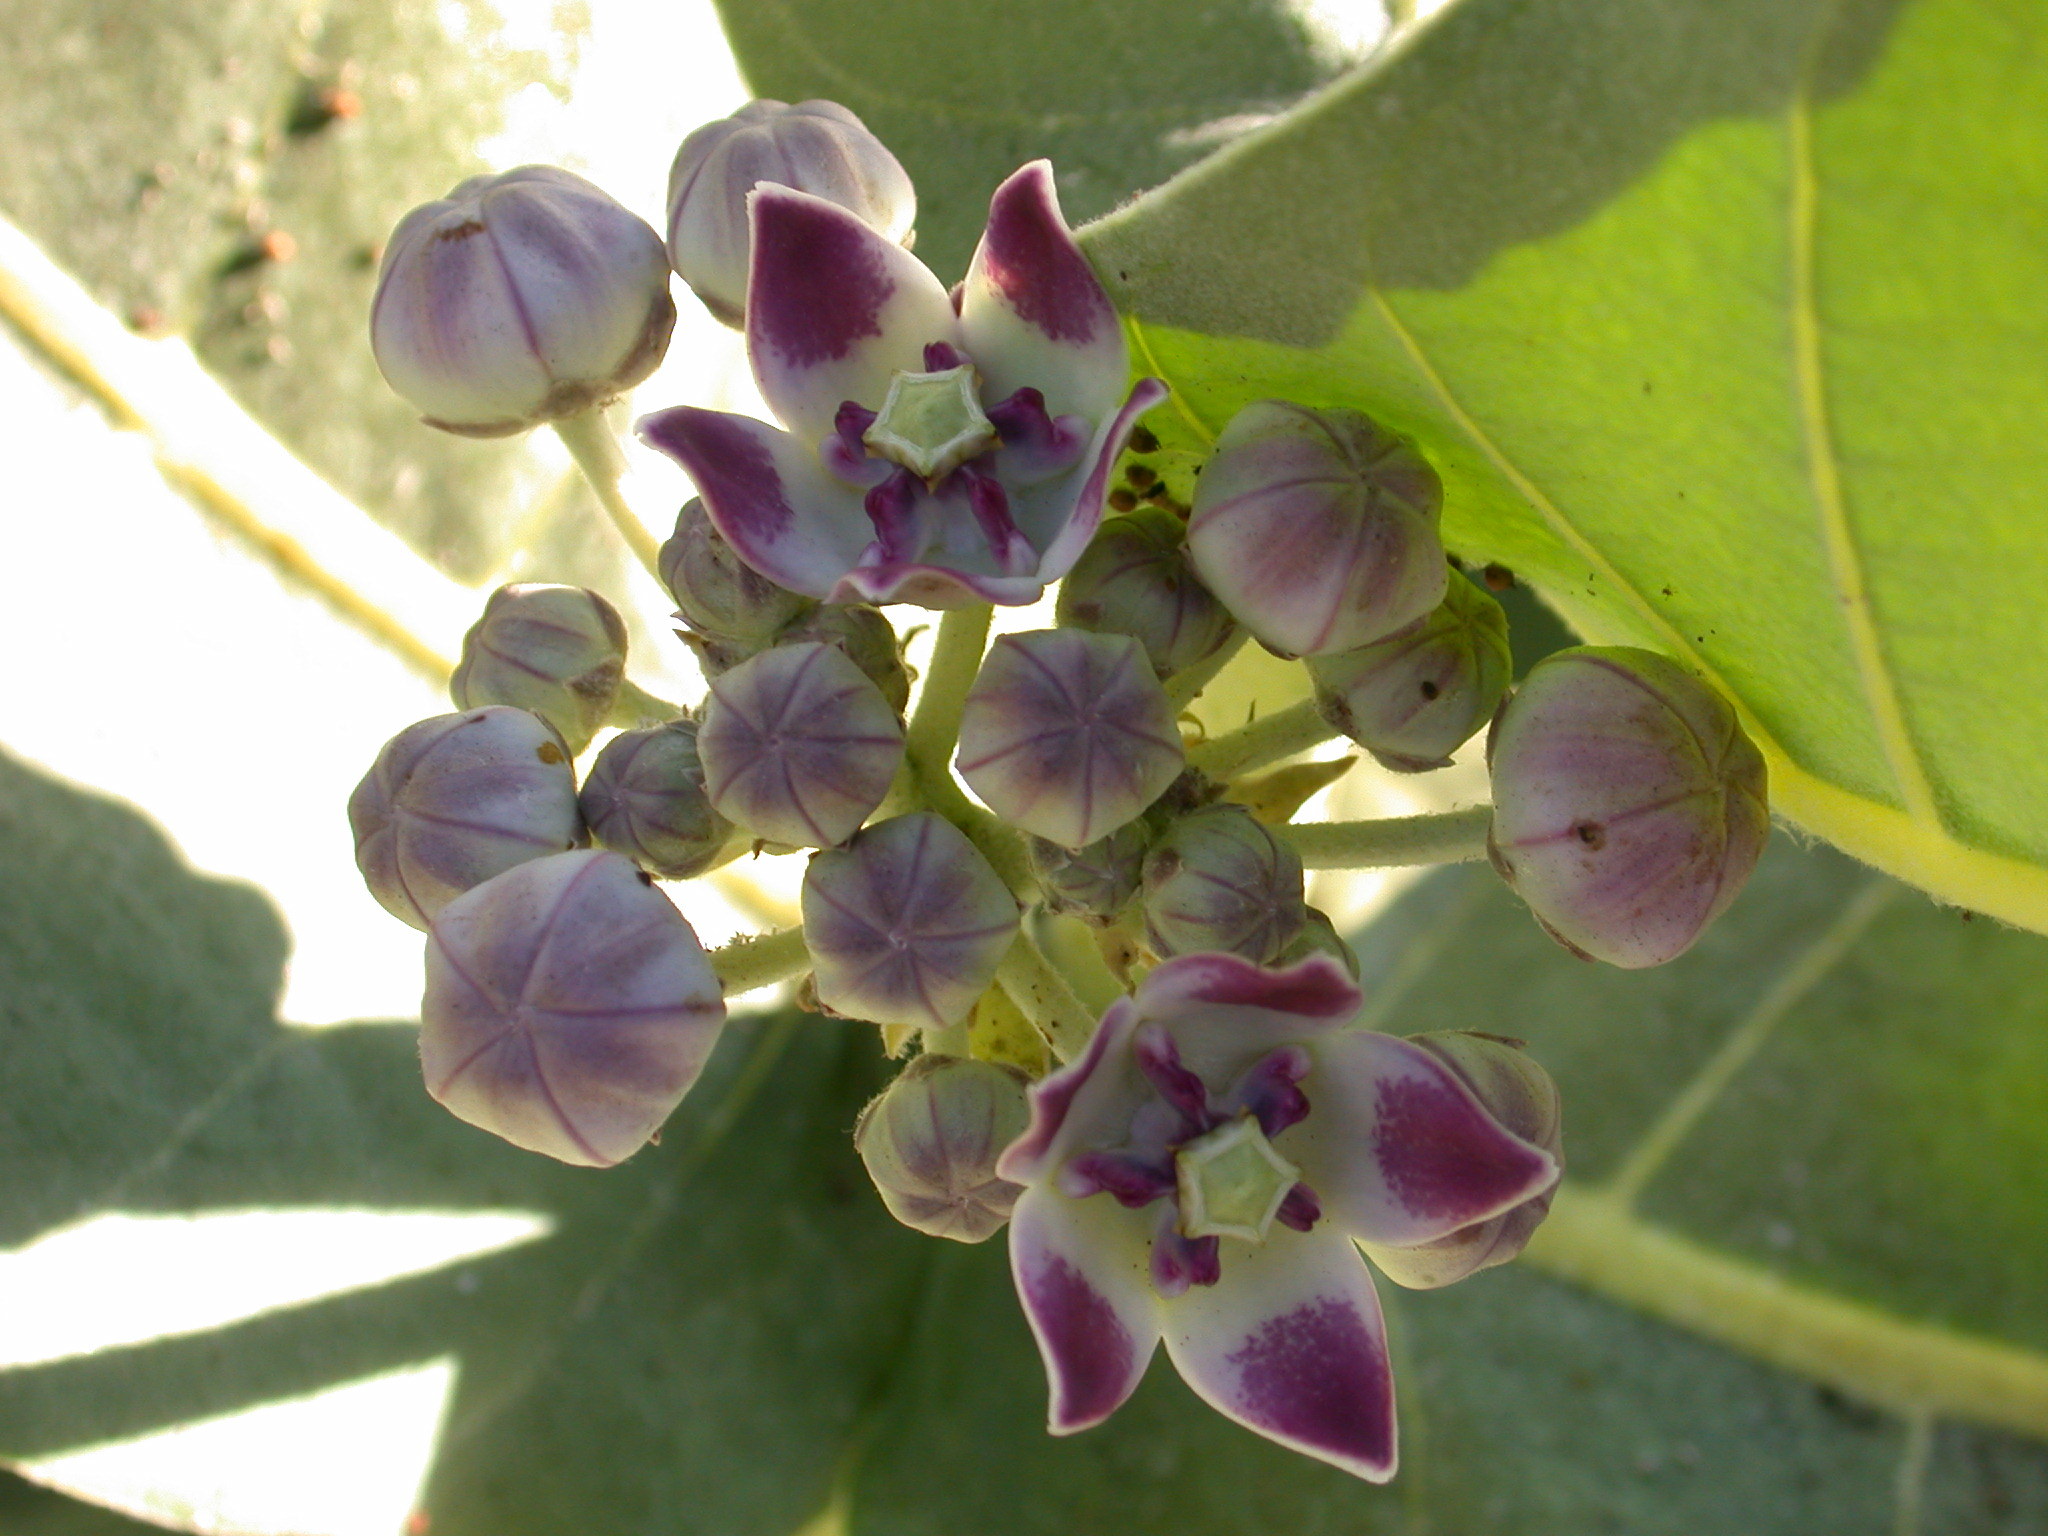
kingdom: Plantae
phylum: Tracheophyta
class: Magnoliopsida
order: Gentianales
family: Apocynaceae
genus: Calotropis
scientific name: Calotropis procera
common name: Roostertree
